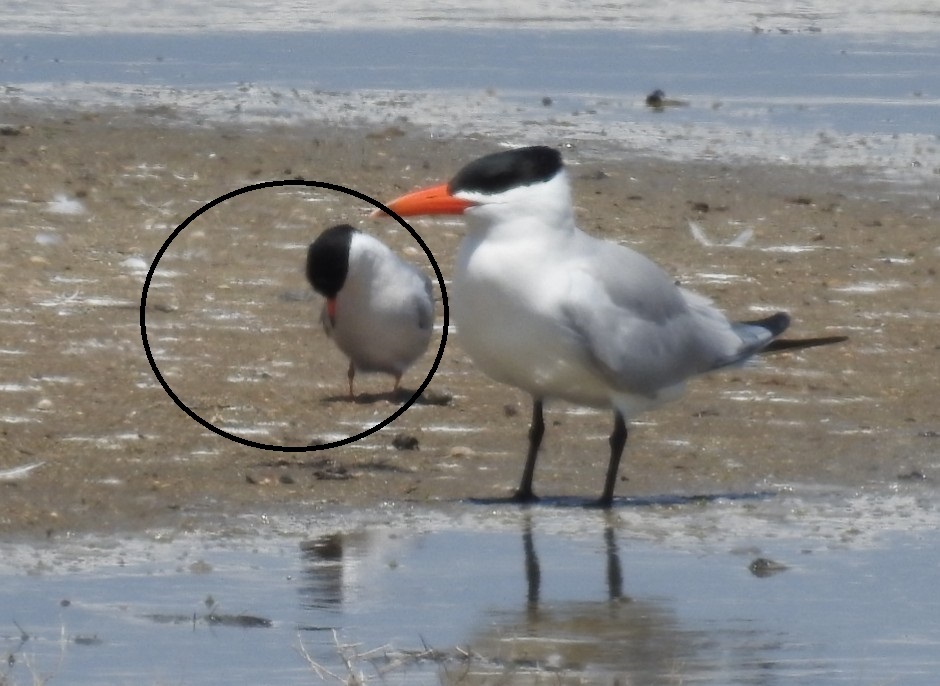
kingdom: Animalia
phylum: Chordata
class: Aves
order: Charadriiformes
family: Laridae
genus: Sterna
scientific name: Sterna hirundo
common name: Common tern
